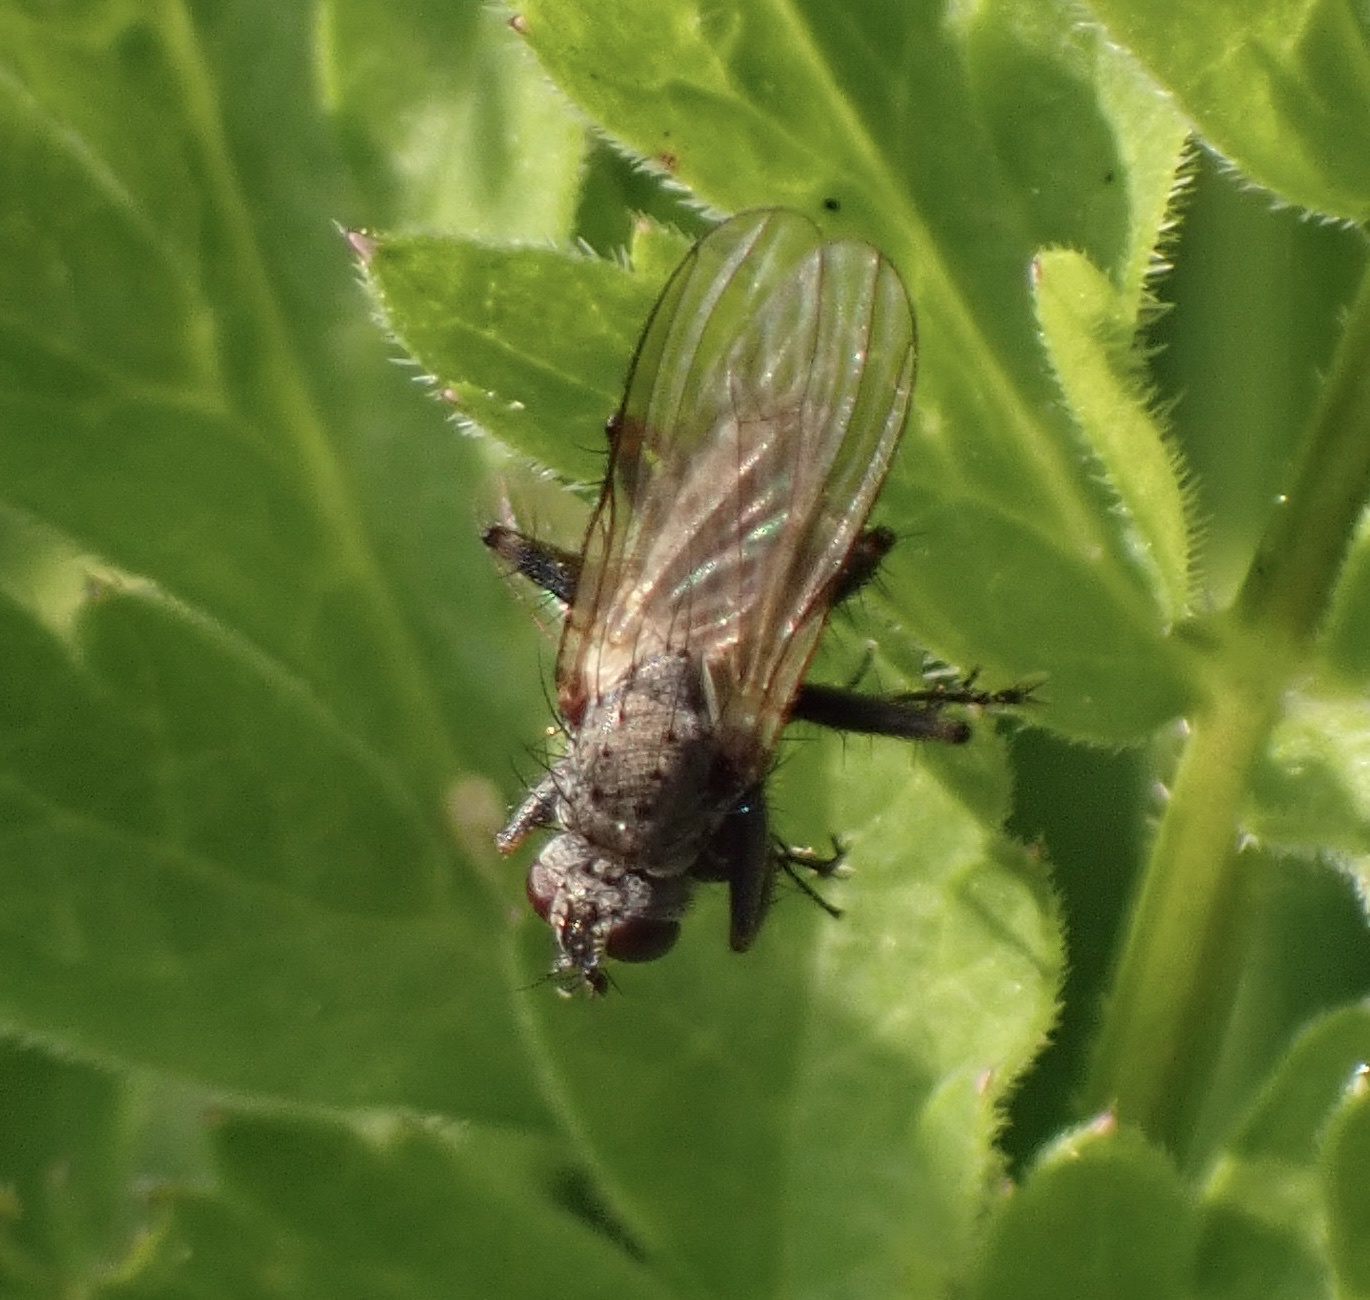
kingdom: Animalia
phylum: Arthropoda
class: Insecta
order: Diptera
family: Muscidae
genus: Coenosia
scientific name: Coenosia tigrina
